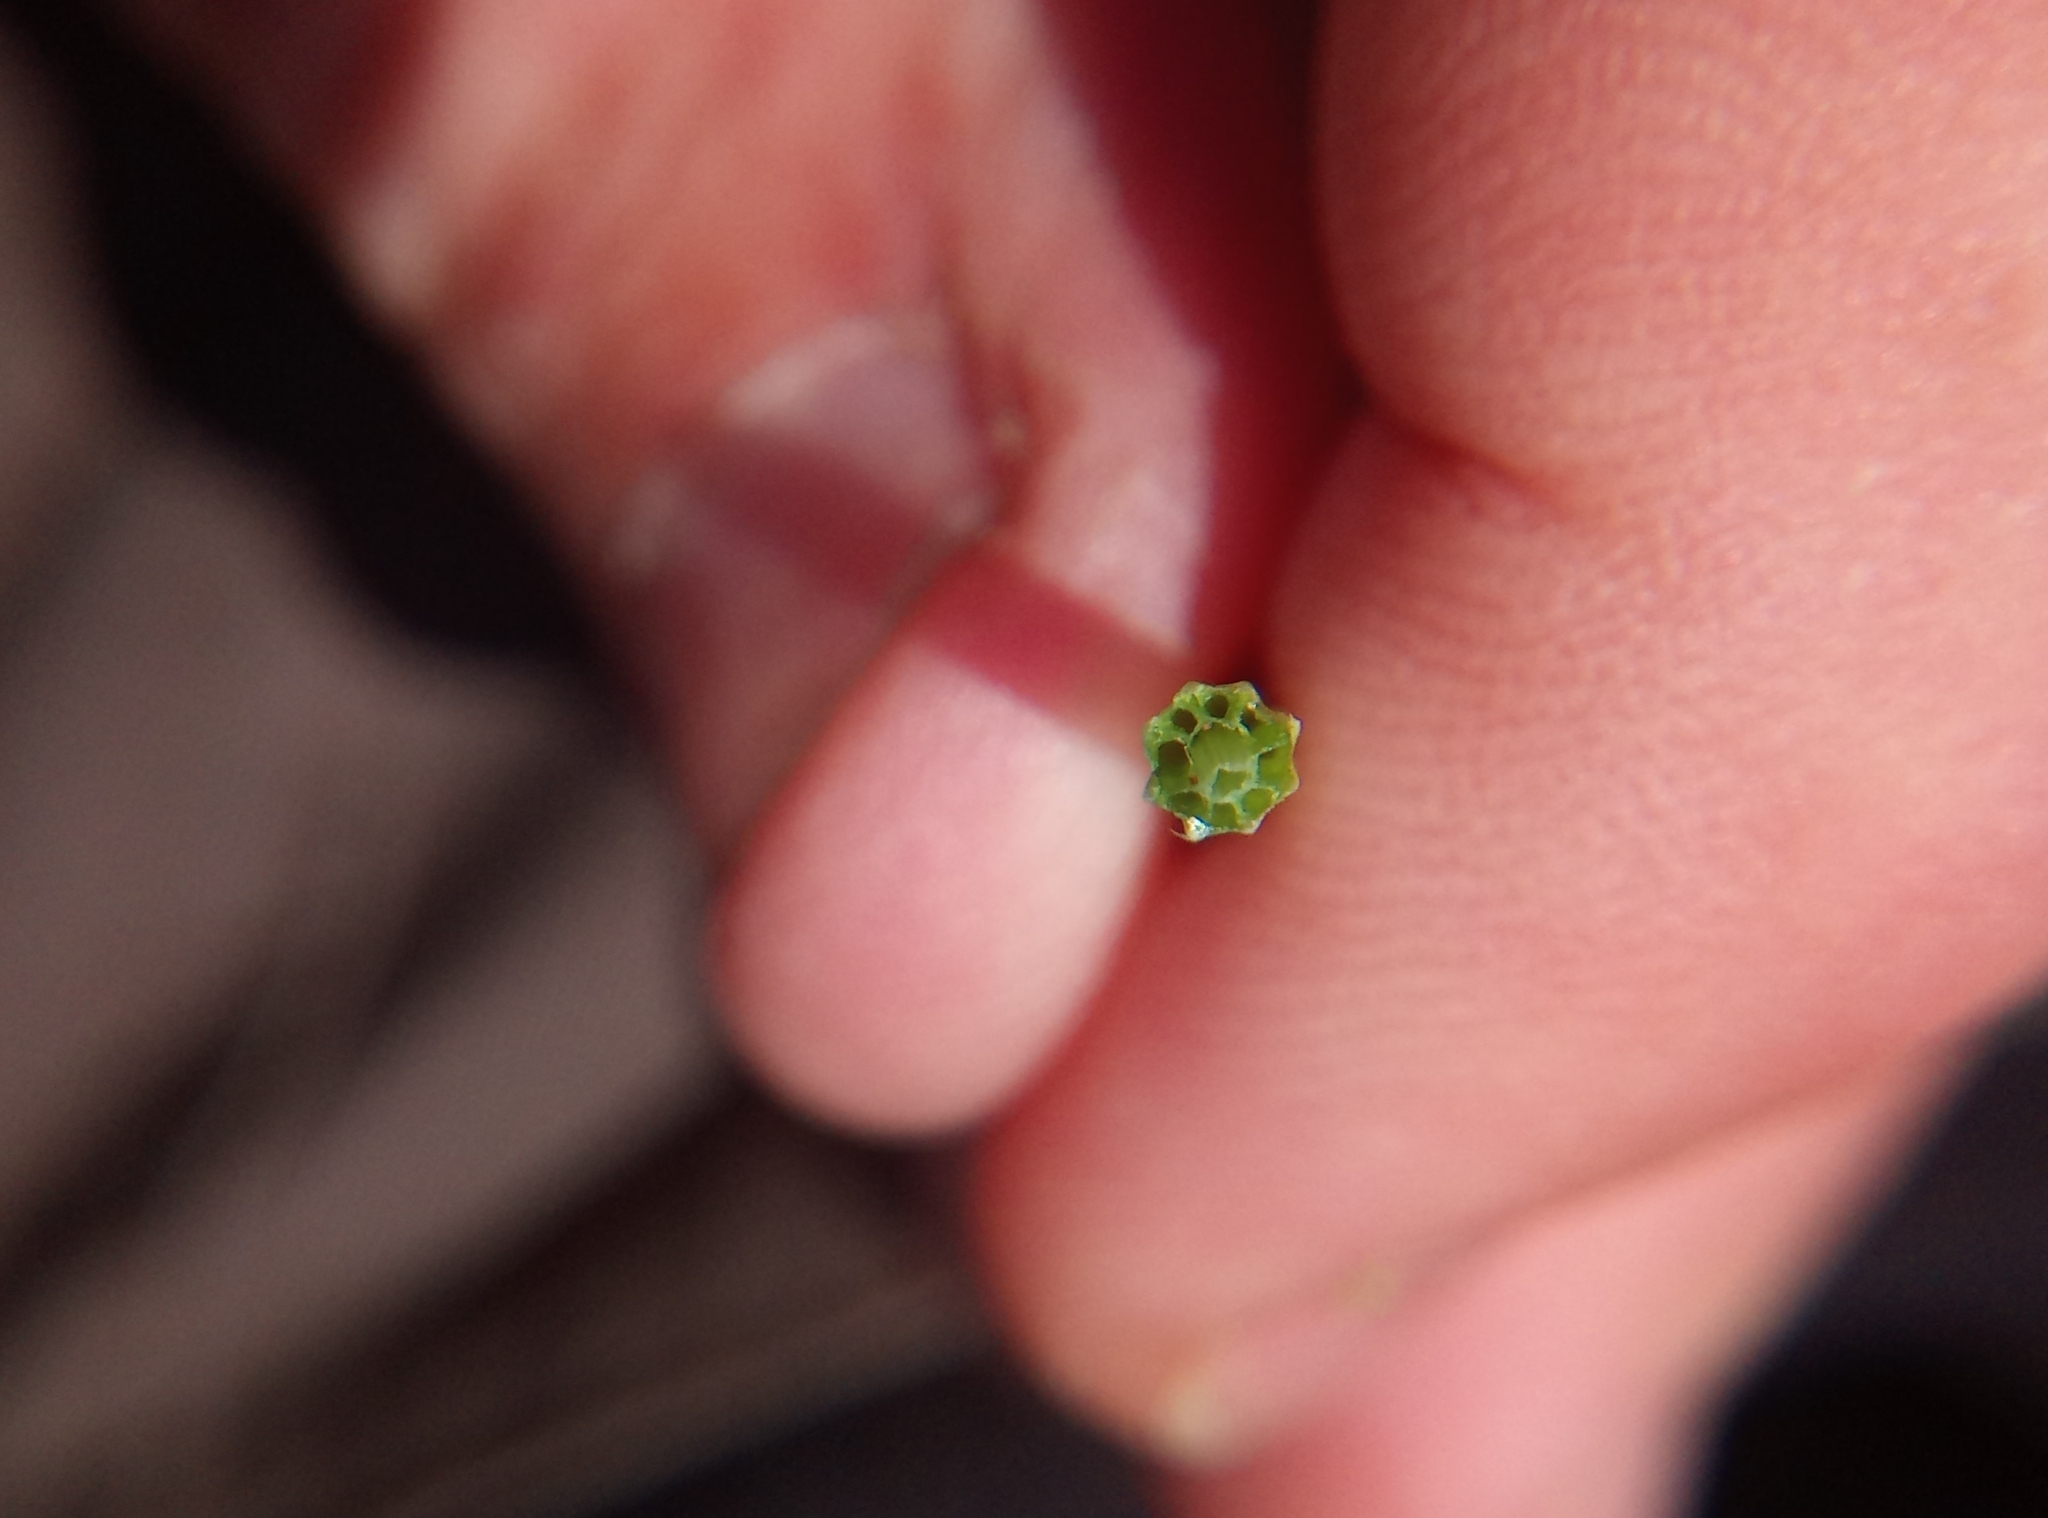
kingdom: Plantae
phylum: Tracheophyta
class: Polypodiopsida
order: Equisetales
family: Equisetaceae
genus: Equisetum
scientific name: Equisetum palustre
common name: Marsh horsetail
